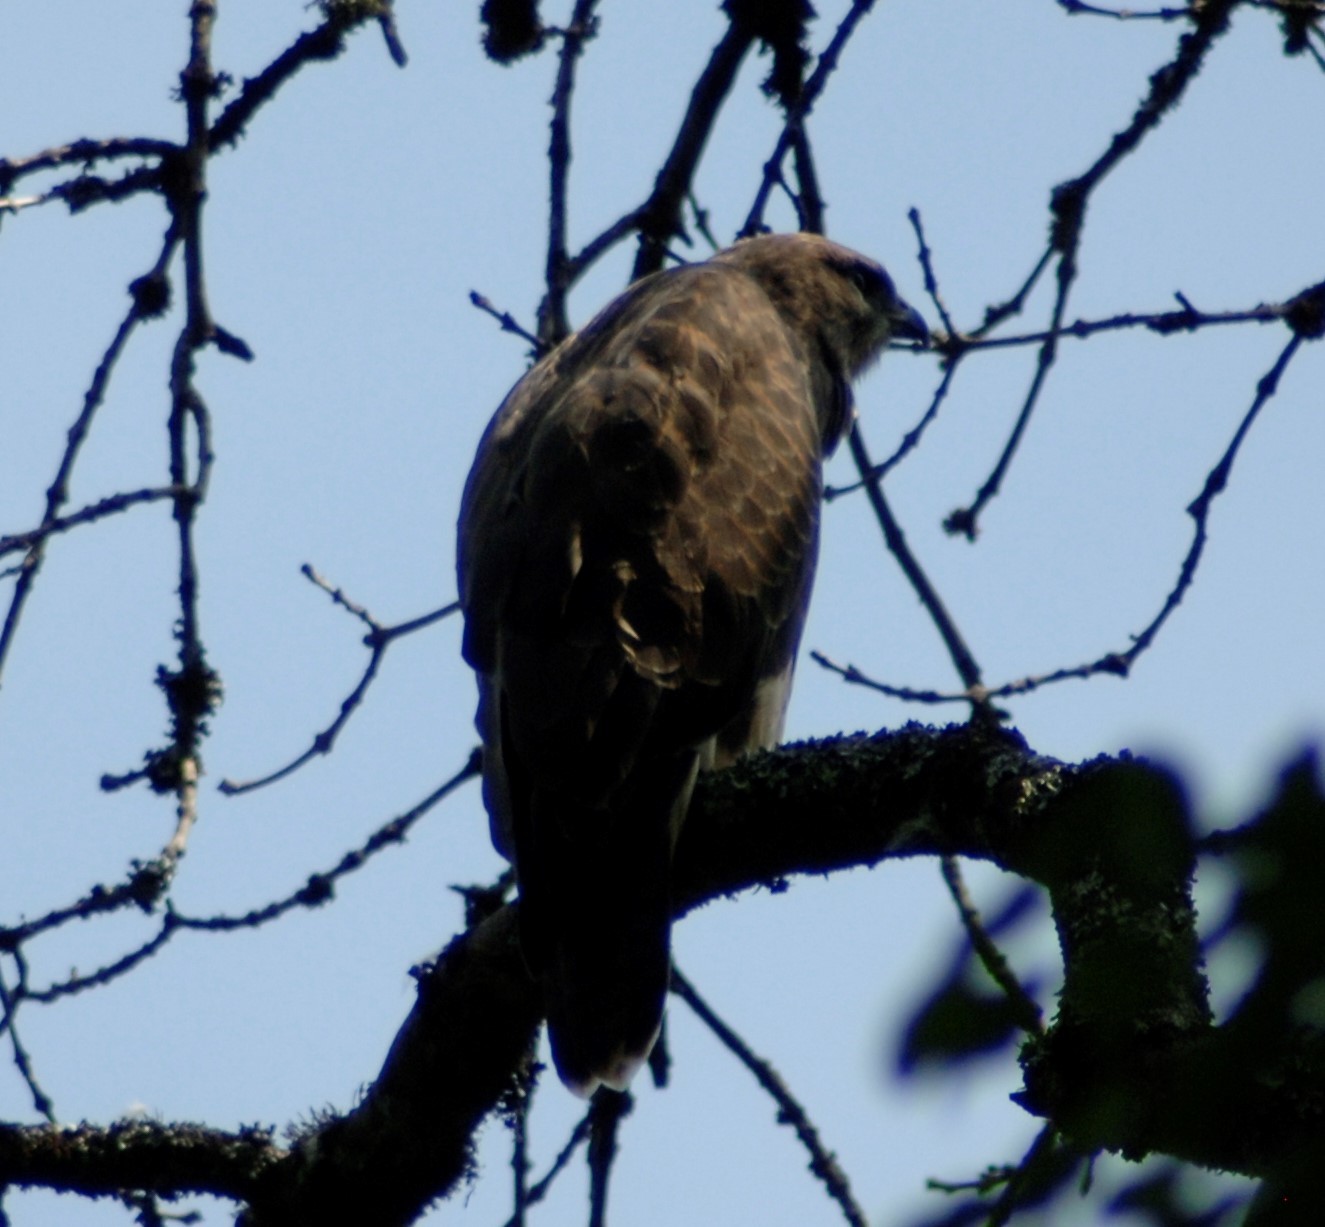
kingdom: Animalia
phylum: Chordata
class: Aves
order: Accipitriformes
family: Accipitridae
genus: Buteo
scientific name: Buteo buteo
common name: Common buzzard
